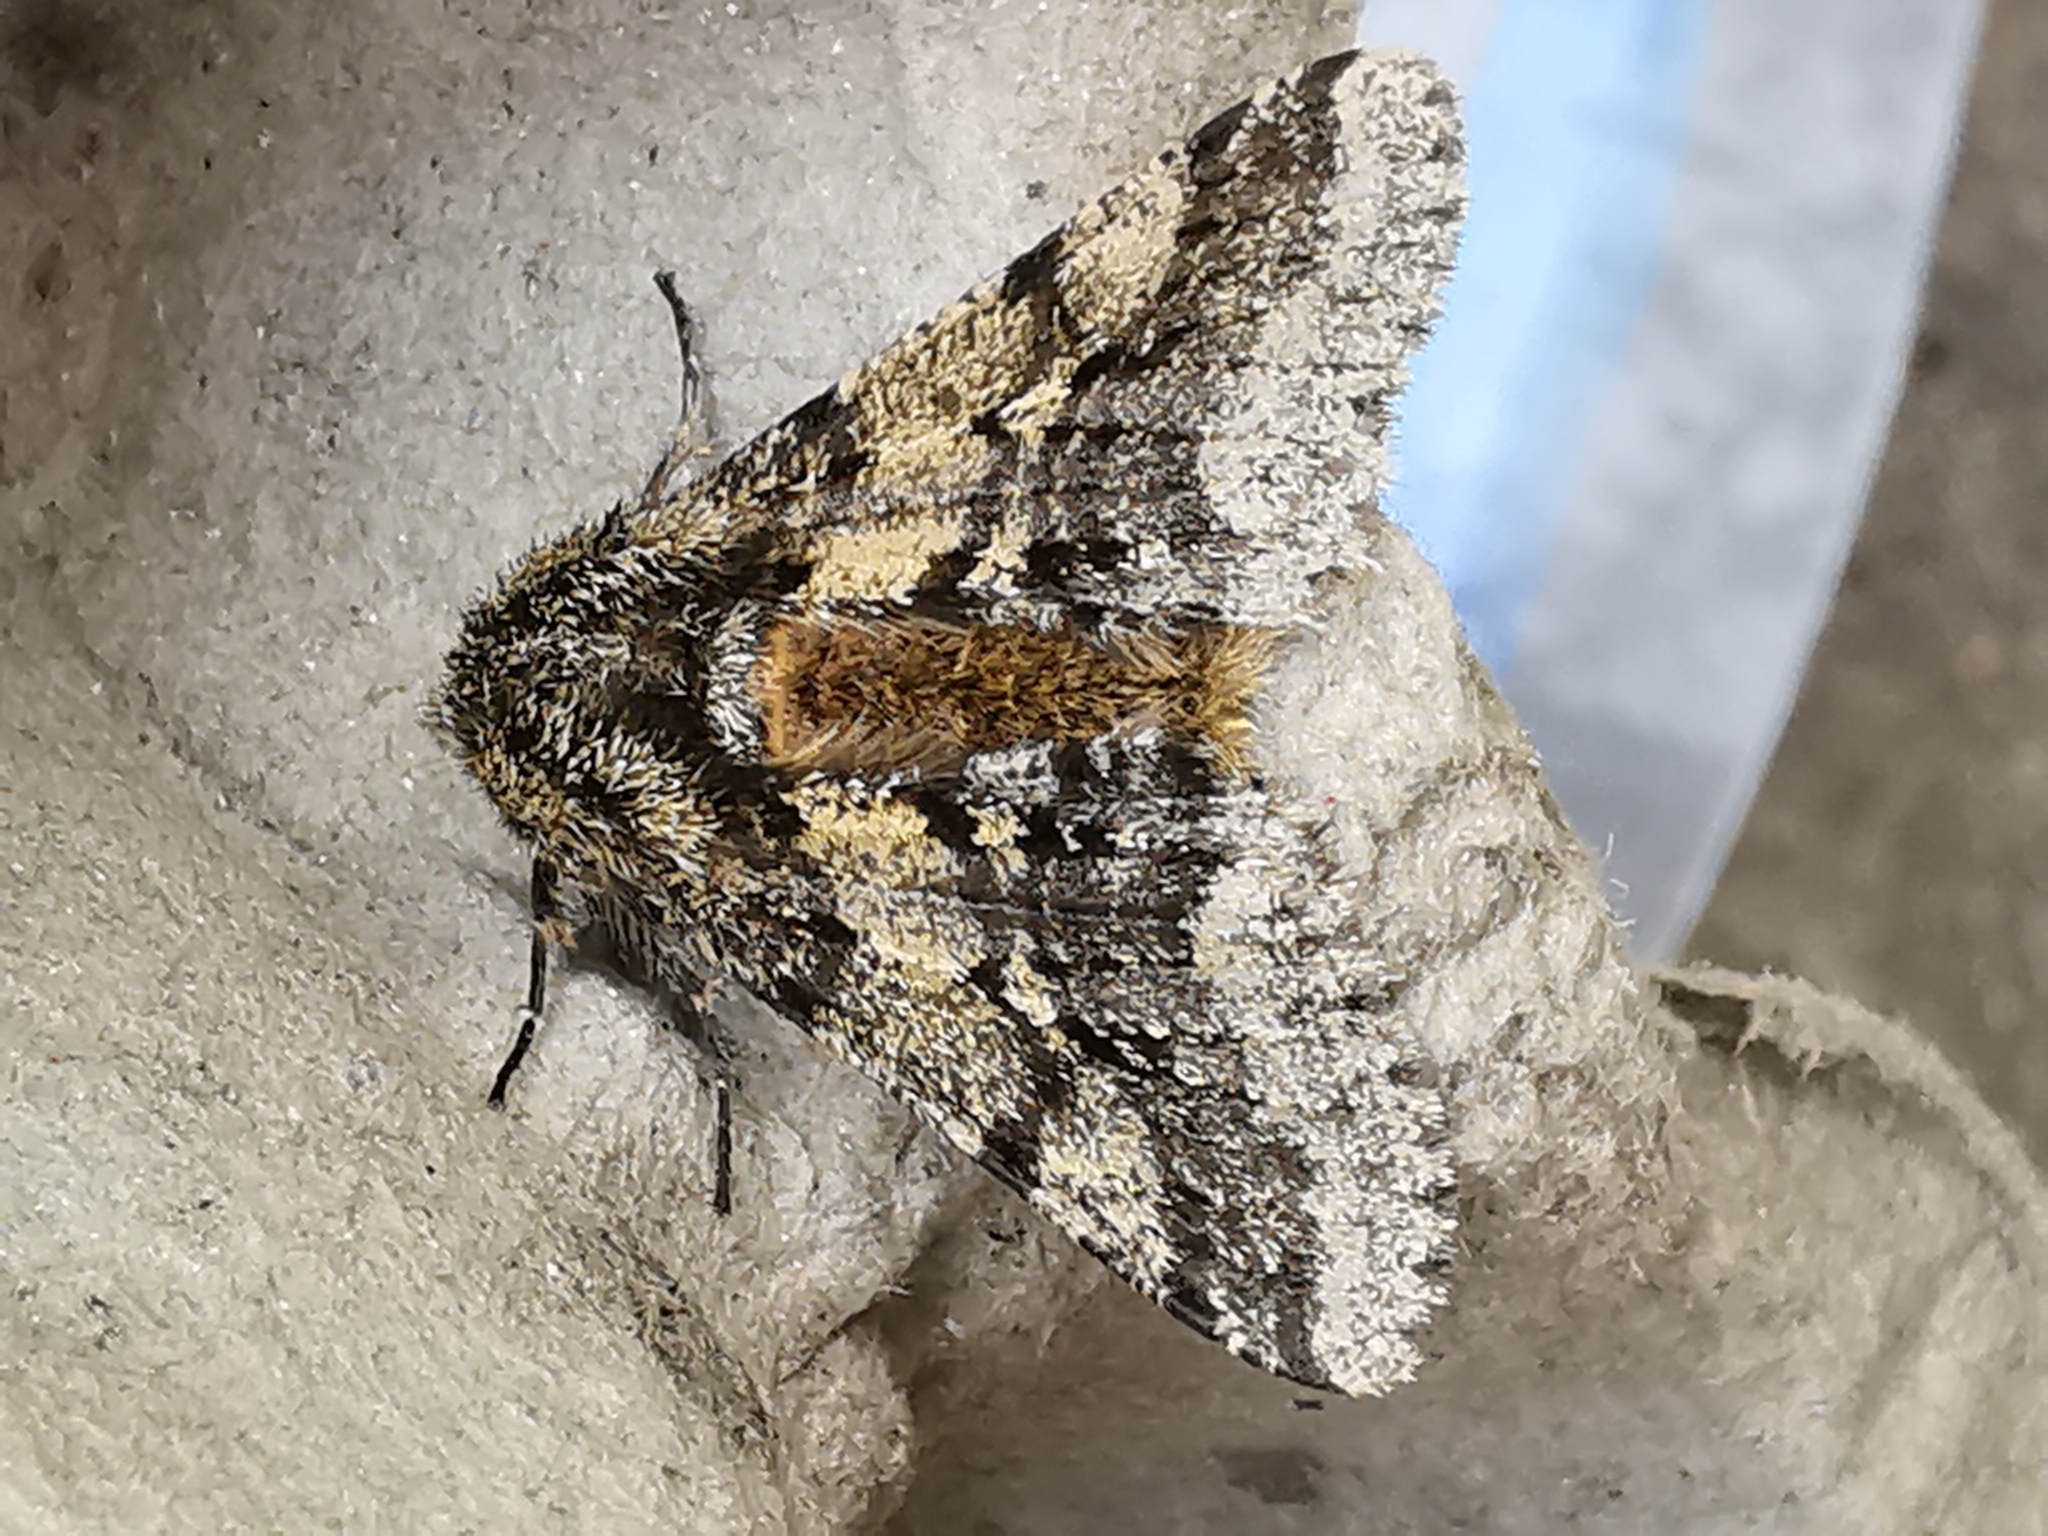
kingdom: Animalia
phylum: Arthropoda
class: Insecta
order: Lepidoptera
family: Geometridae
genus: Lycia
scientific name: Lycia hirtaria
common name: Brindled beauty
